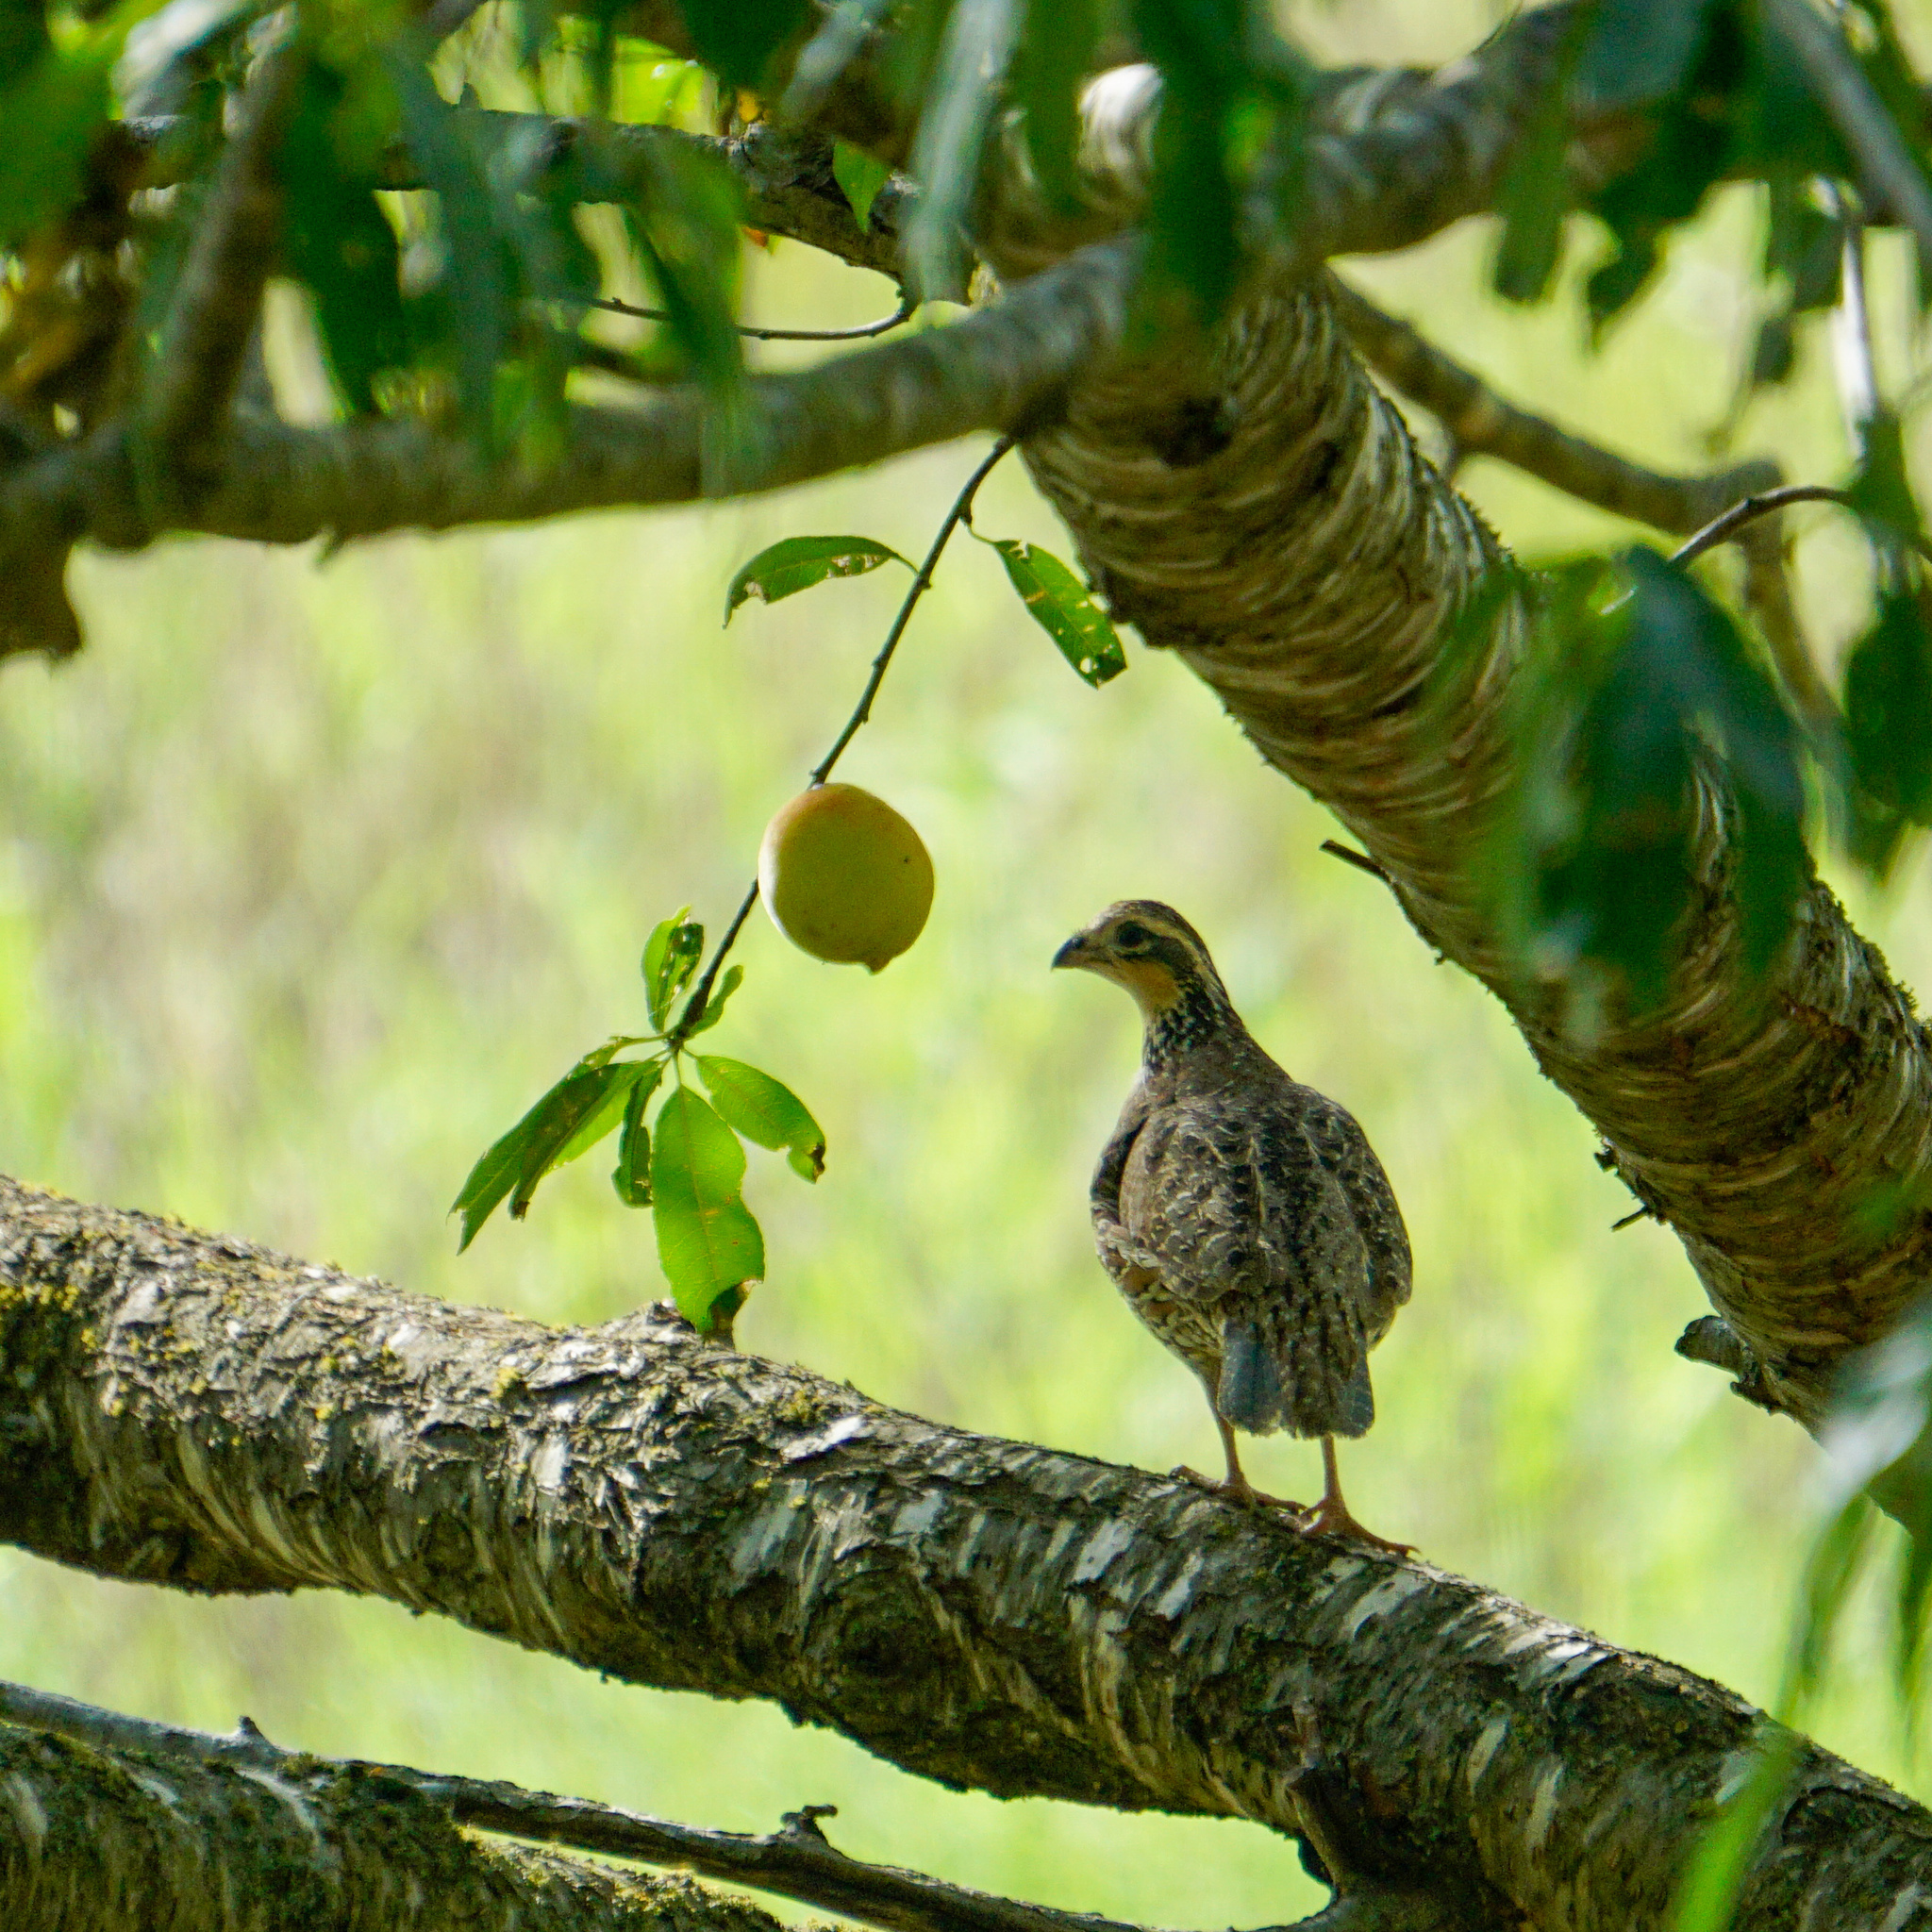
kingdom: Animalia
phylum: Chordata
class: Aves
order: Galliformes
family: Odontophoridae
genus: Colinus
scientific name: Colinus virginianus
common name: Northern bobwhite
